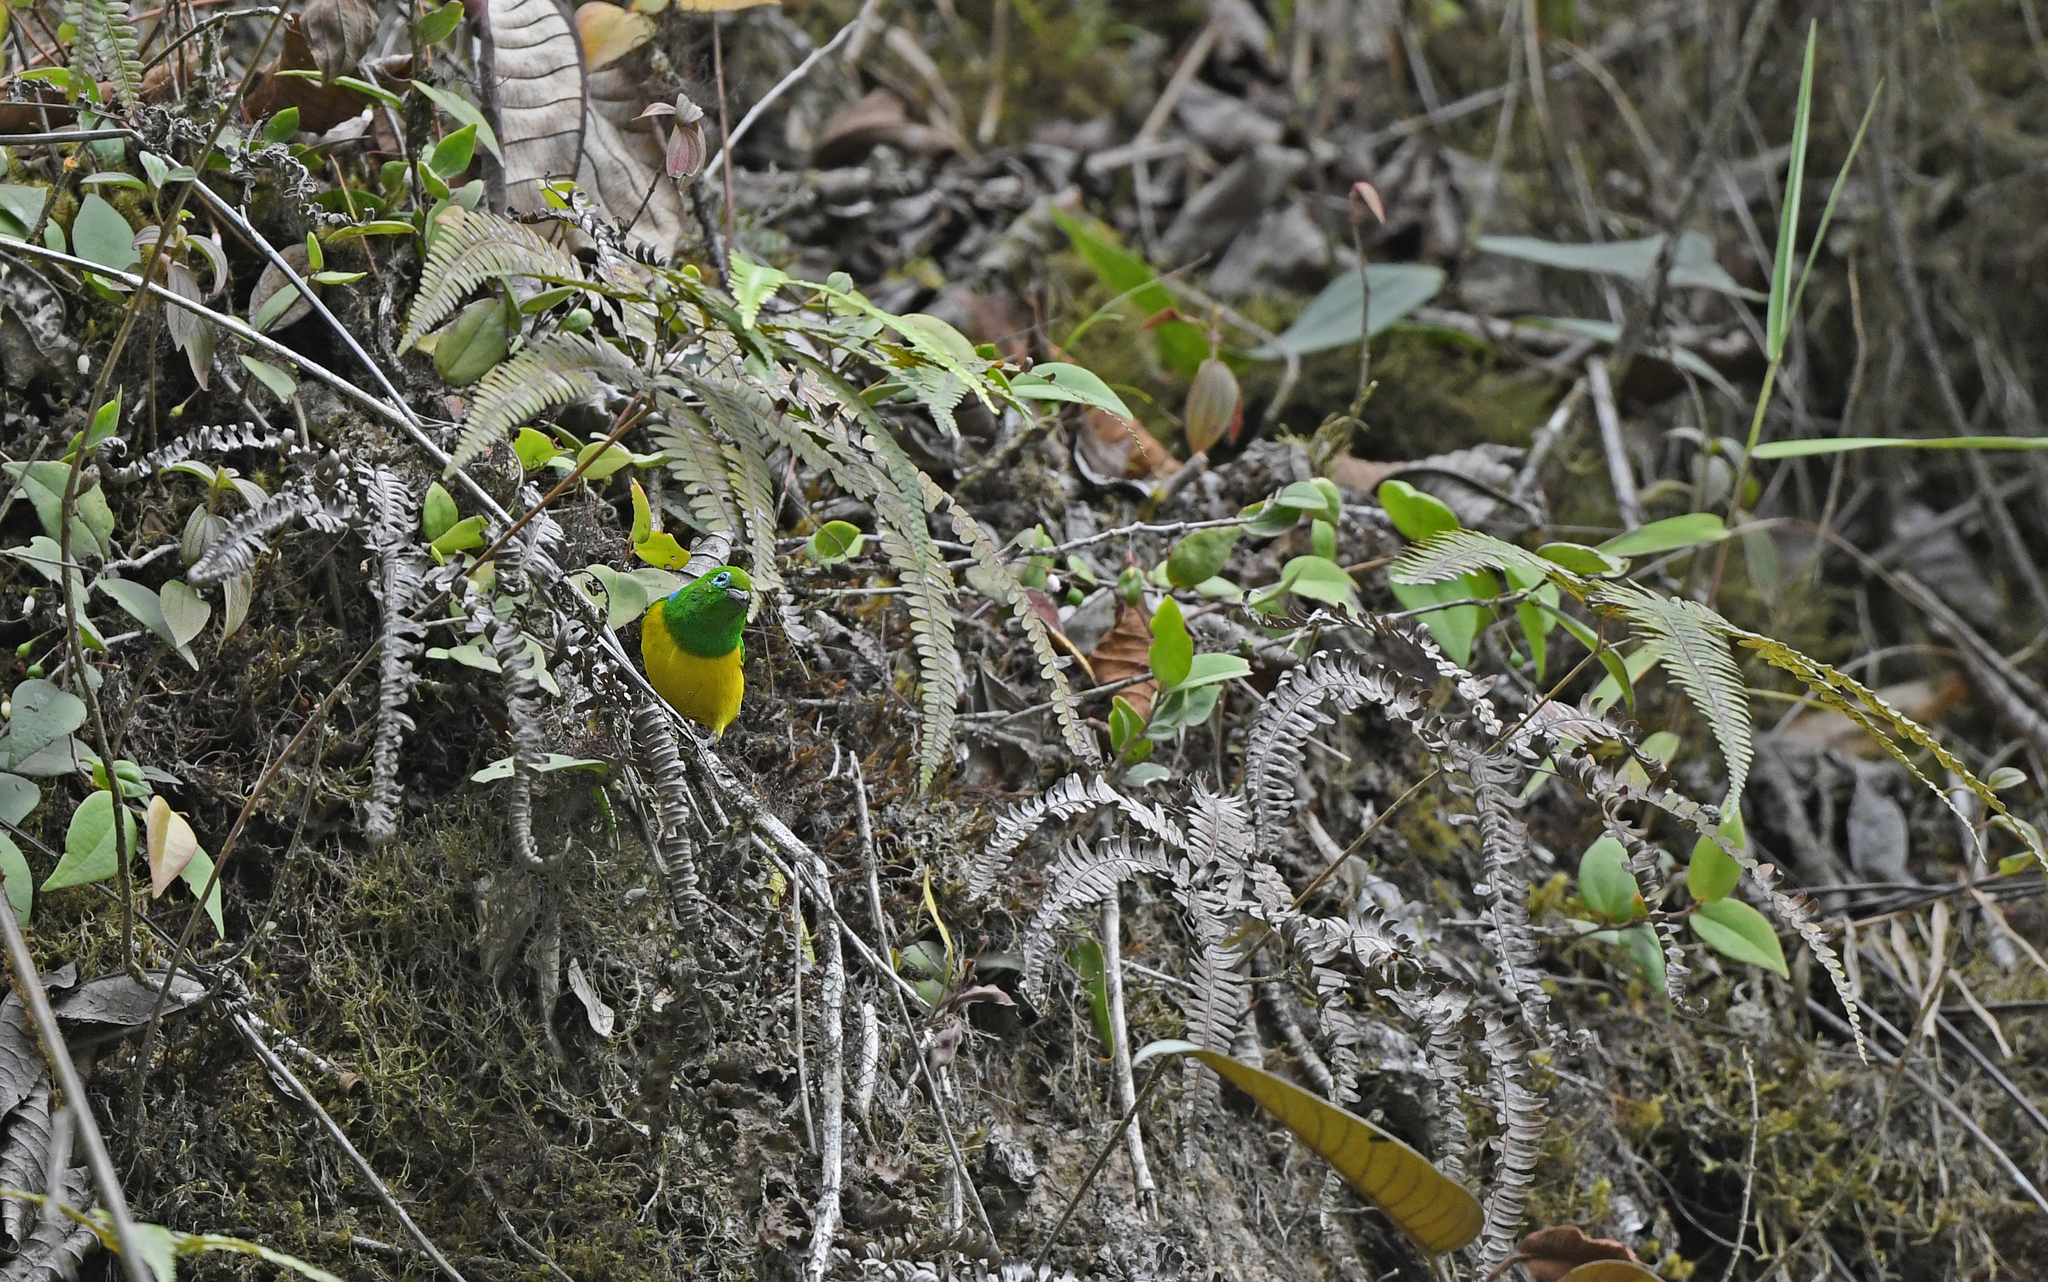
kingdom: Animalia
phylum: Chordata
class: Aves
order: Passeriformes
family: Fringillidae
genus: Chlorophonia
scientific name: Chlorophonia cyanea
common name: Blue-naped chlorophonia
